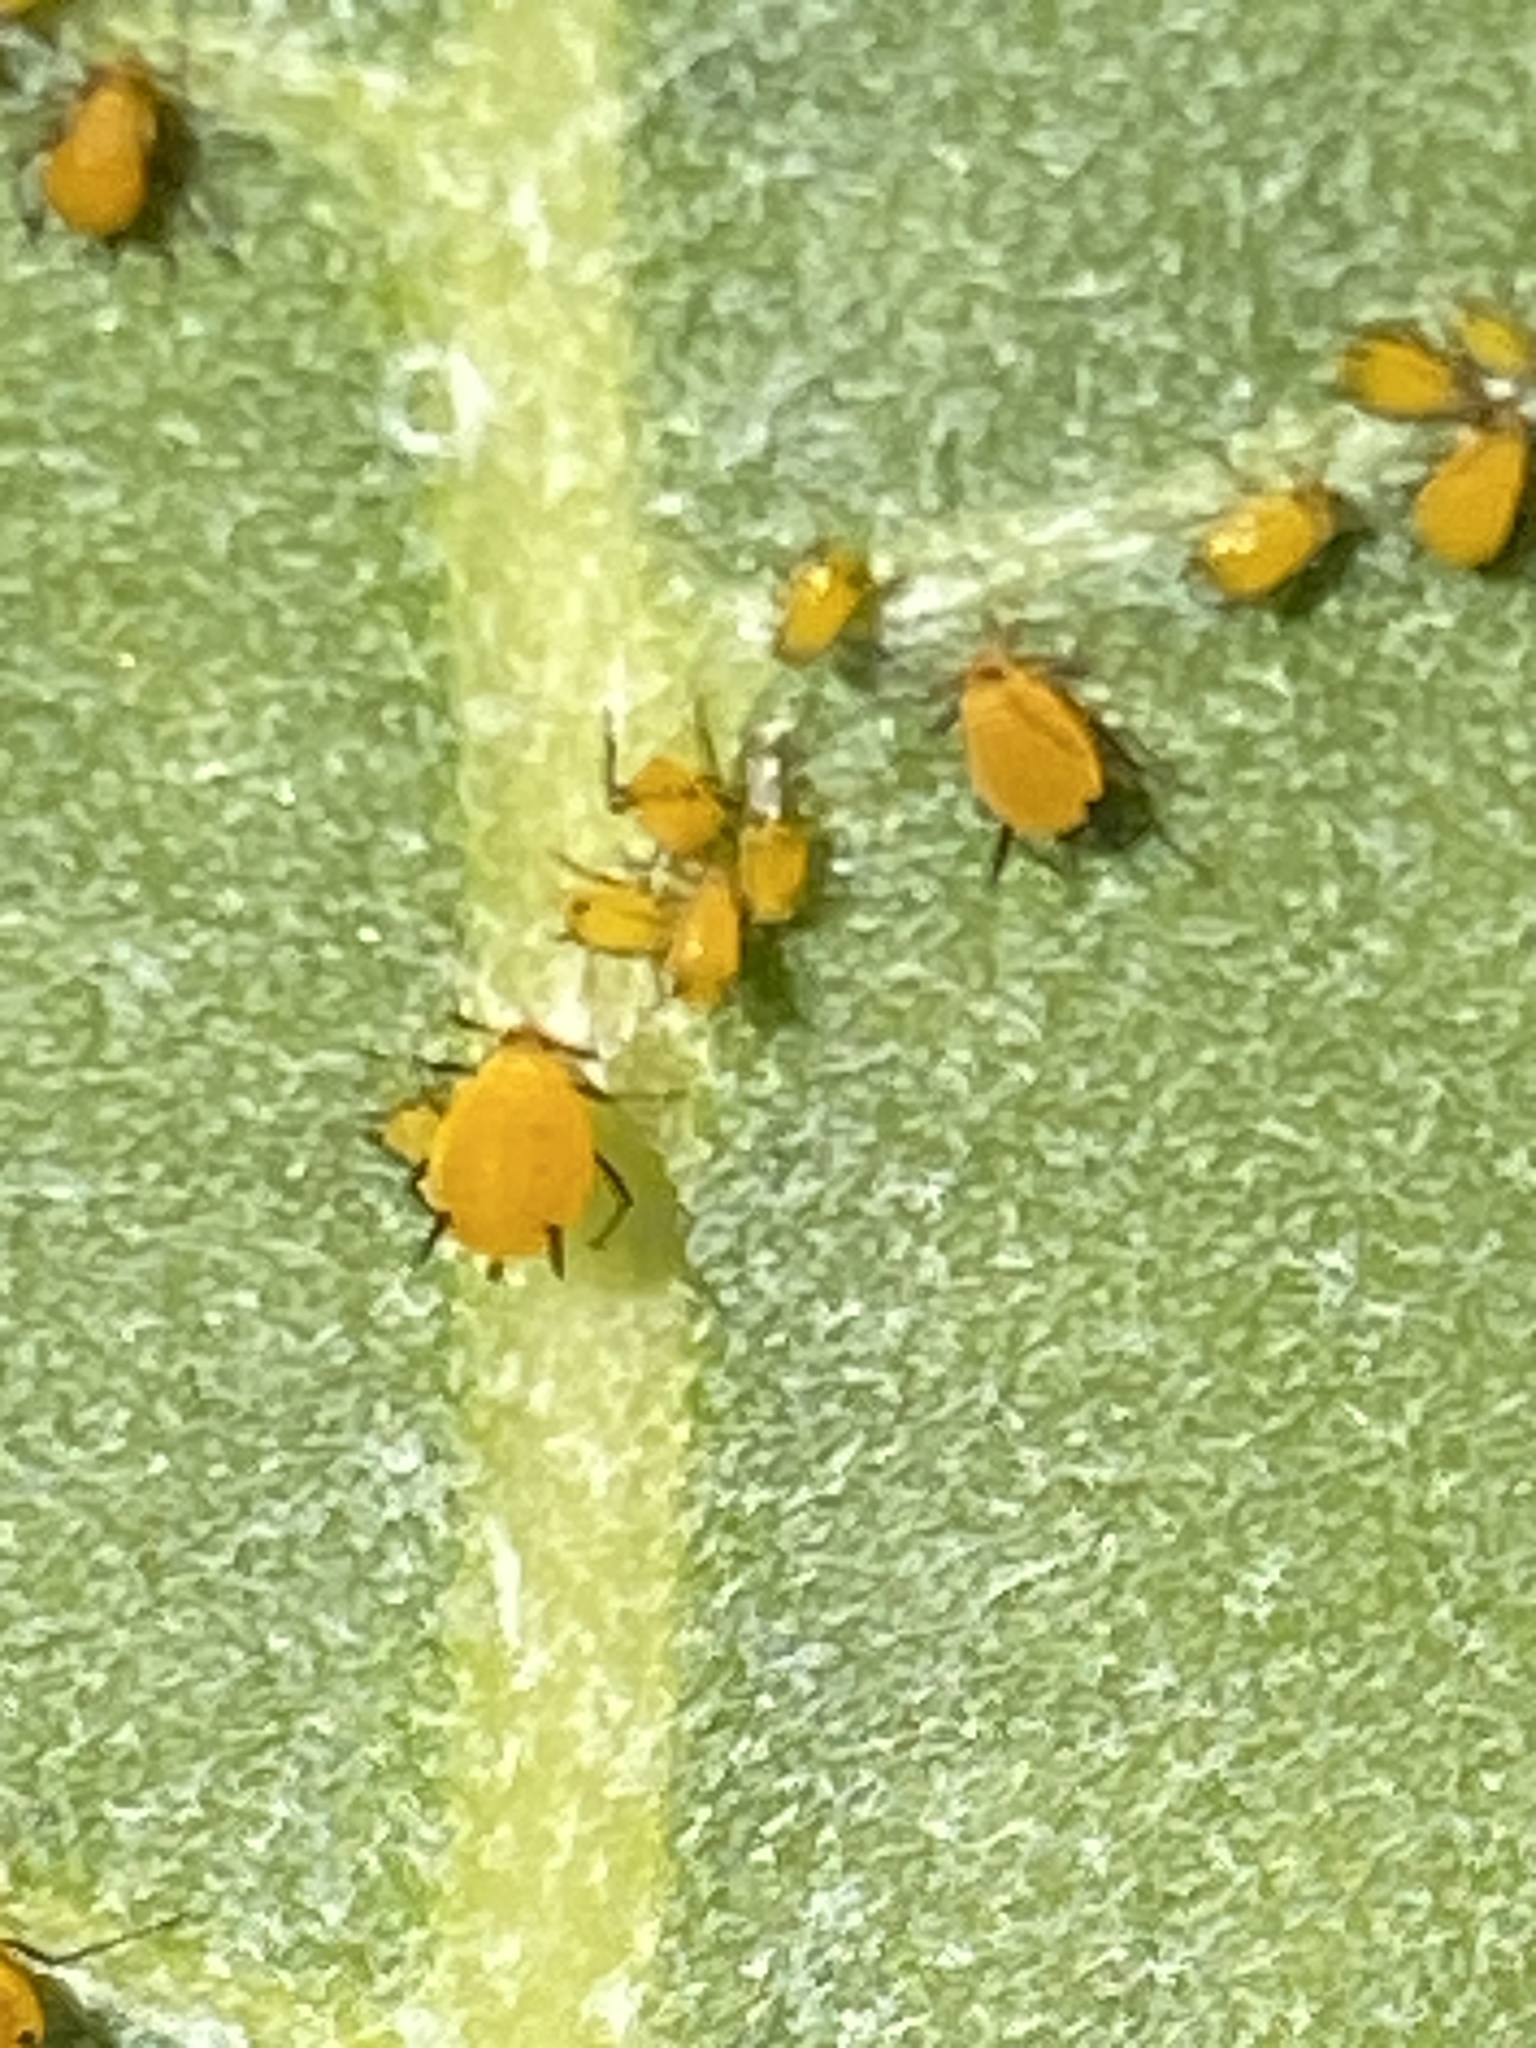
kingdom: Animalia
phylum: Arthropoda
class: Insecta
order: Hemiptera
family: Aphididae
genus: Aphis
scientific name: Aphis nerii
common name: Oleander aphid
